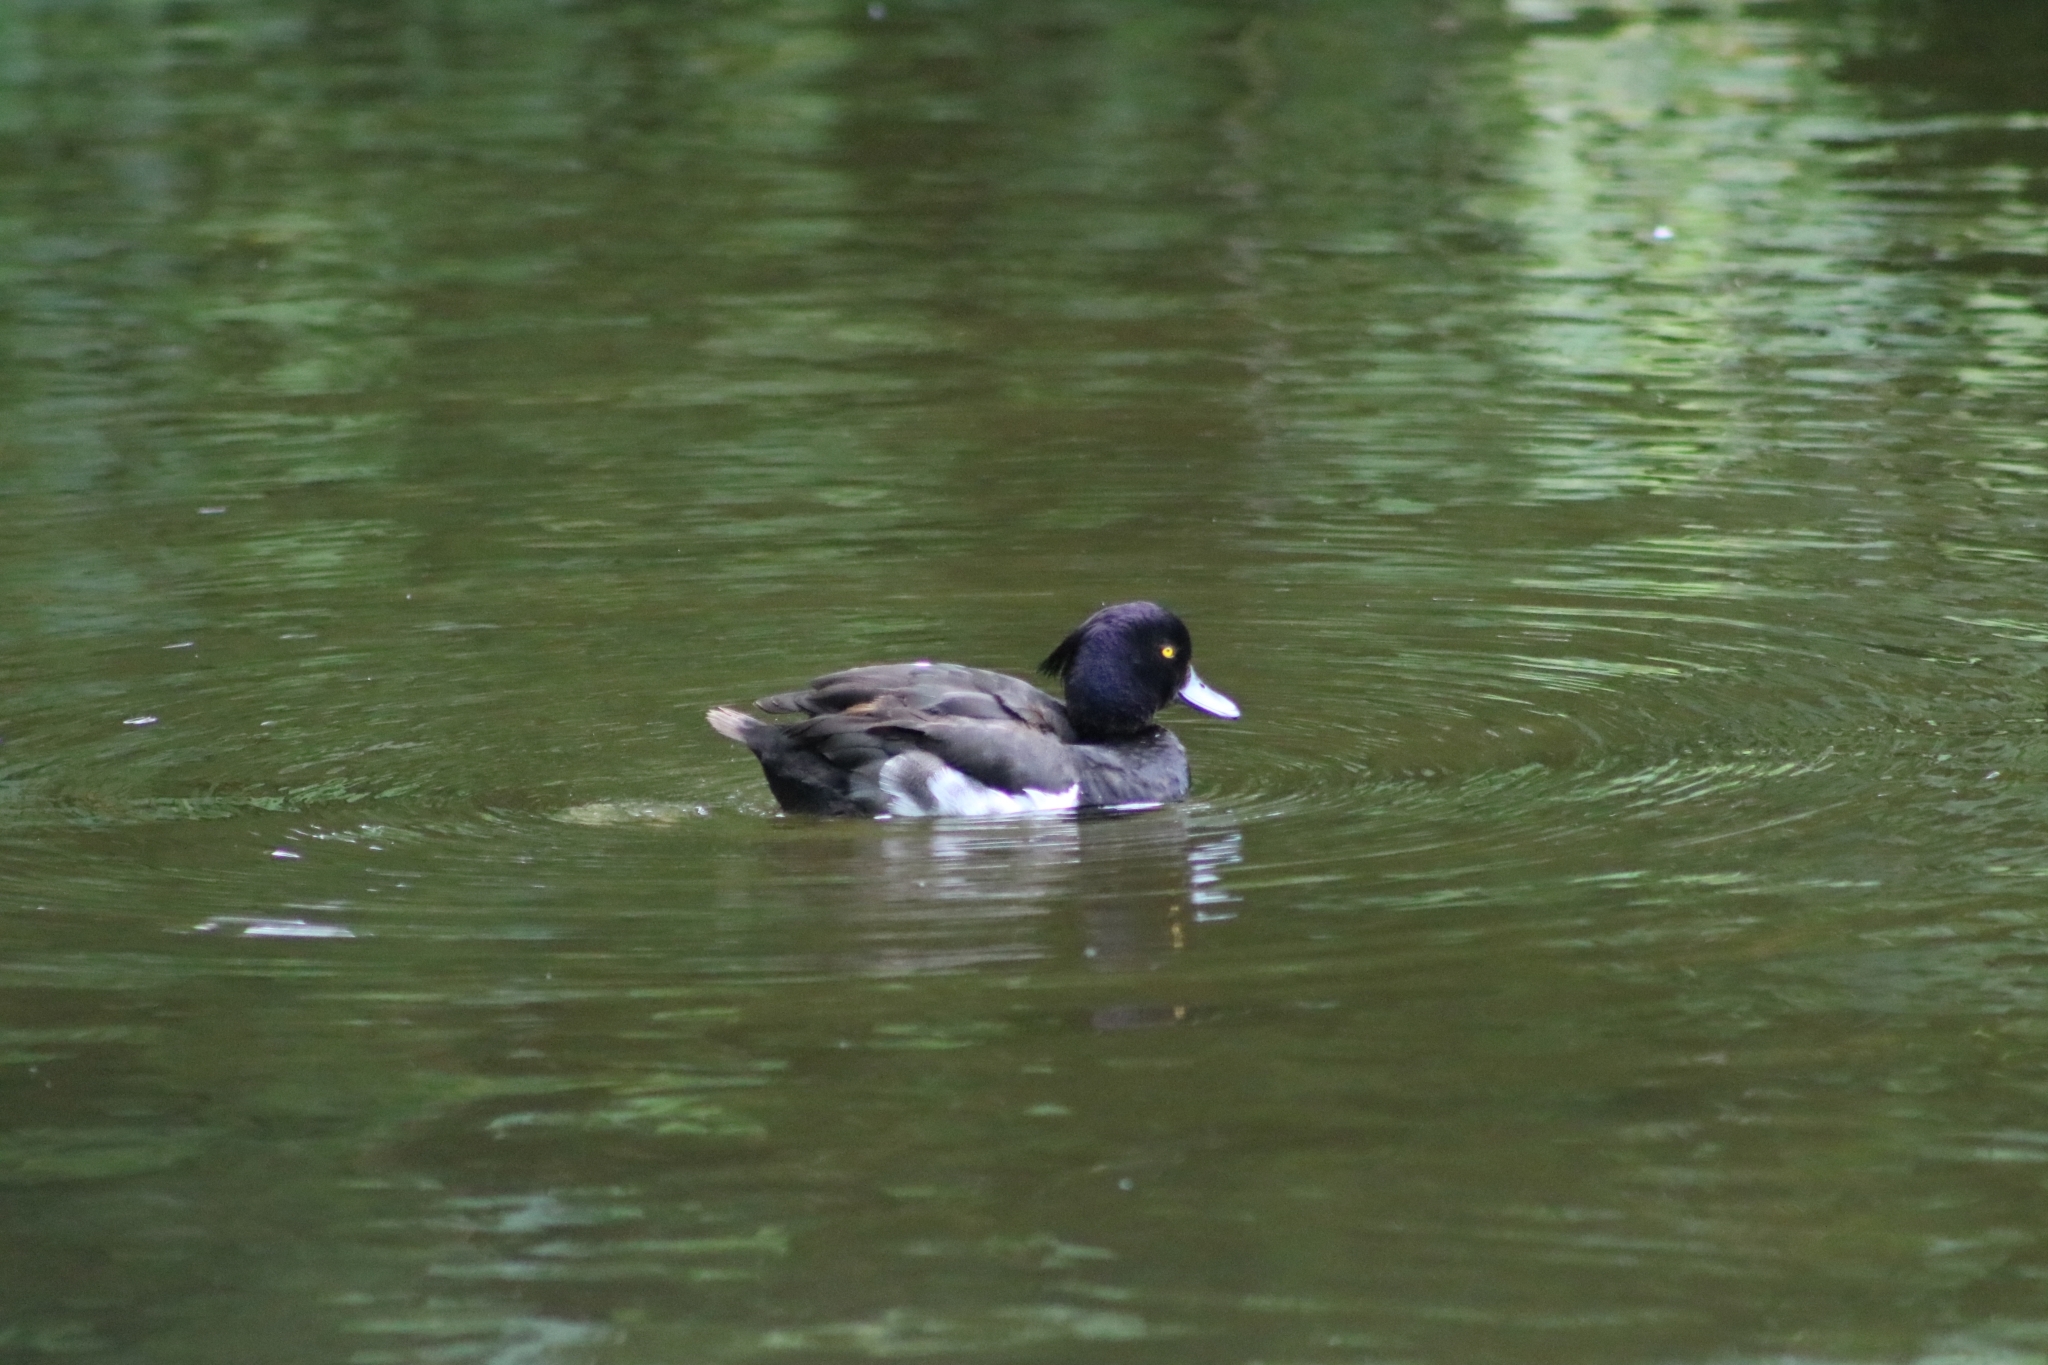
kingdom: Animalia
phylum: Chordata
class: Aves
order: Anseriformes
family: Anatidae
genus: Aythya
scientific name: Aythya fuligula
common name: Tufted duck
